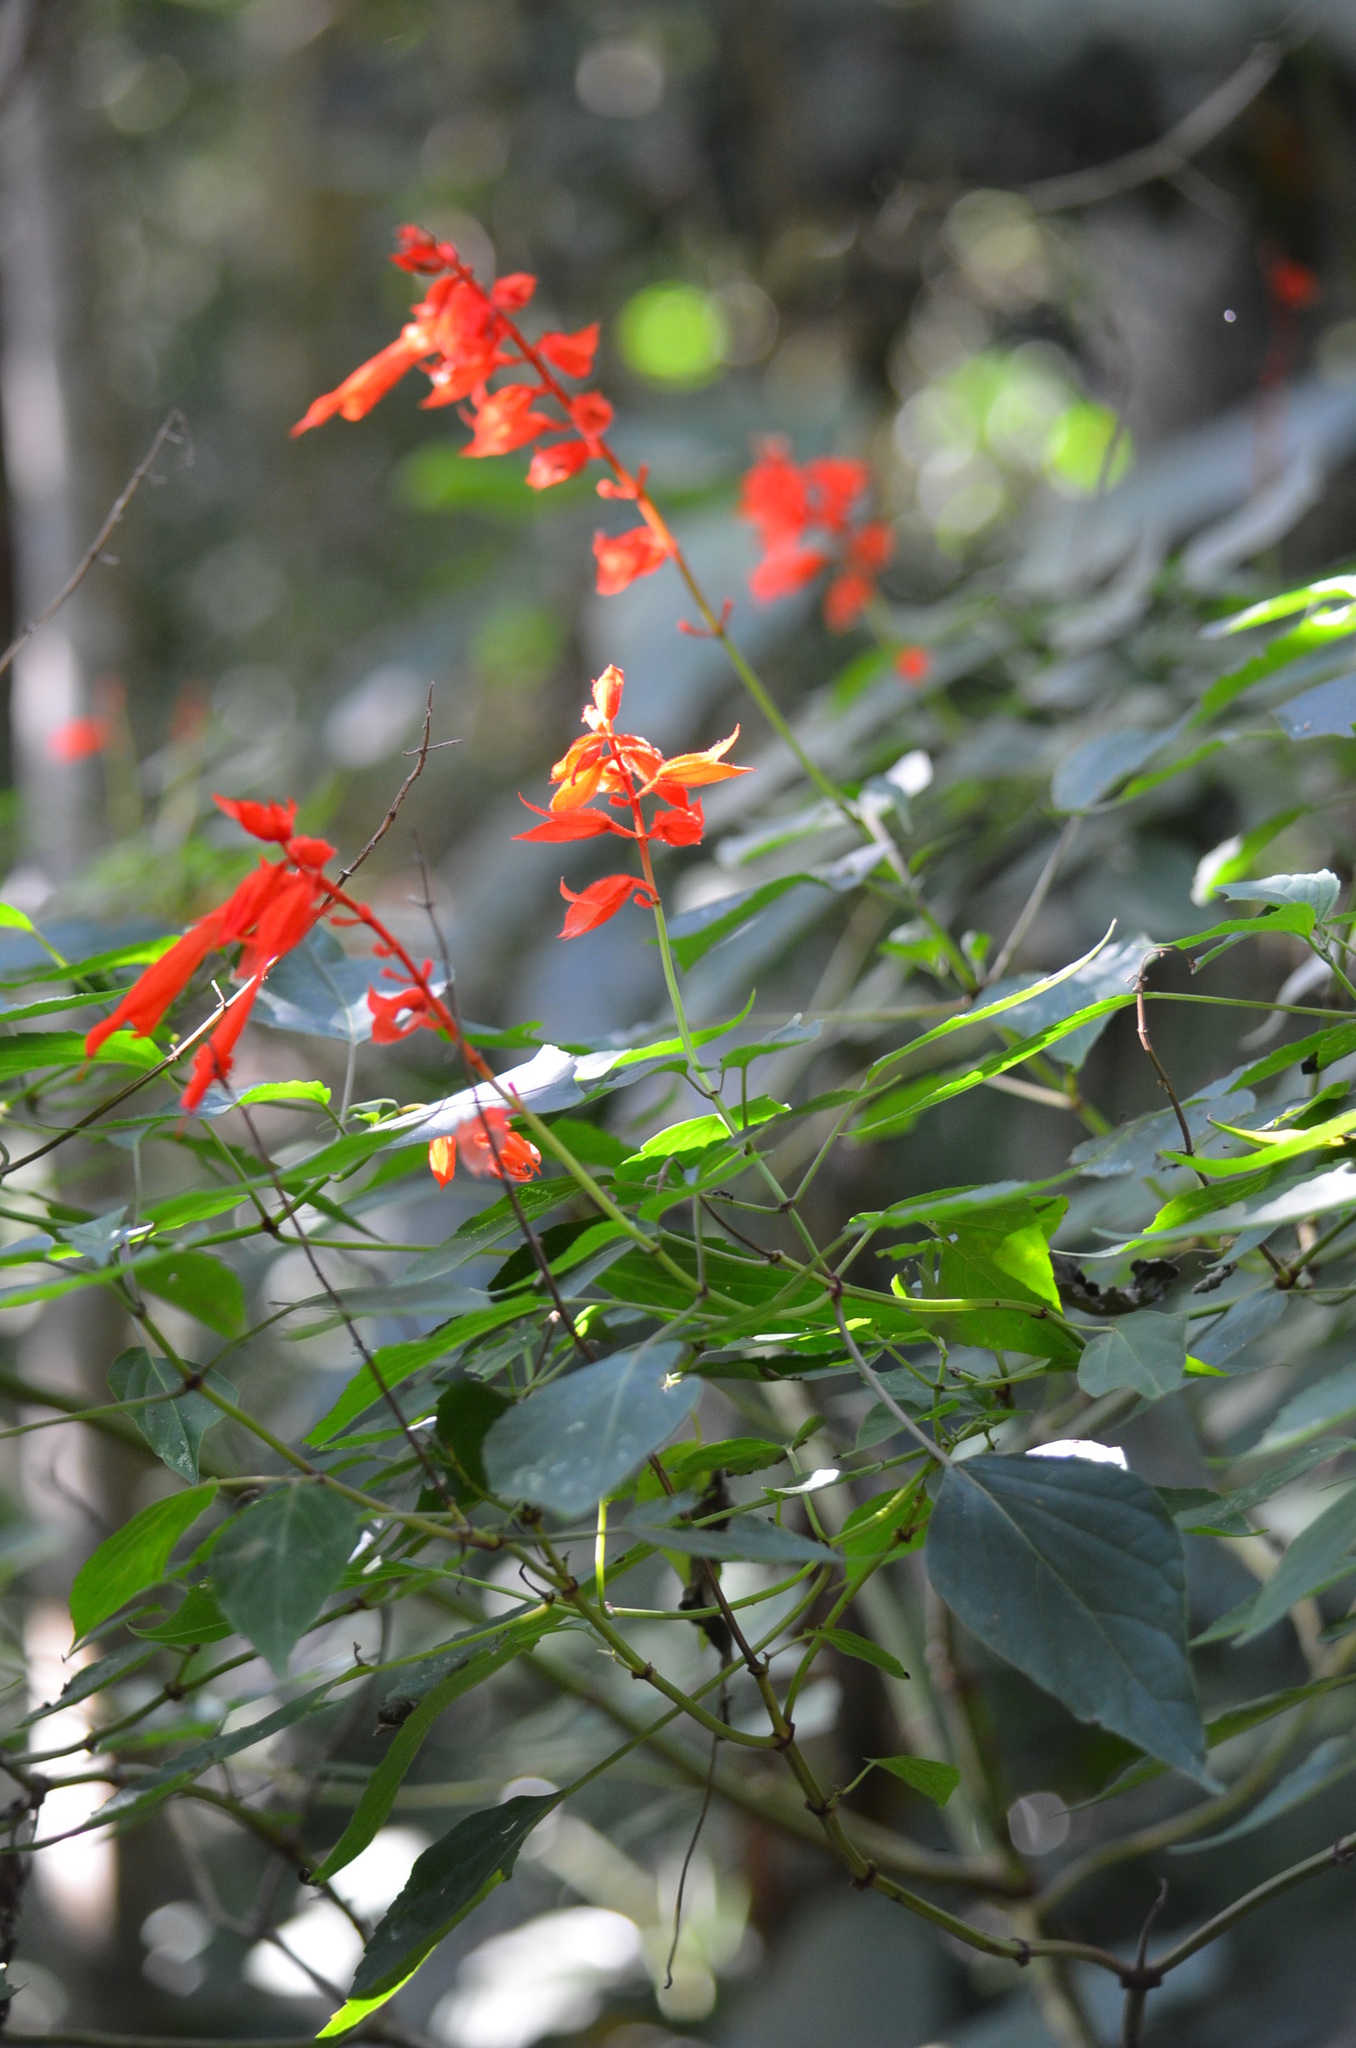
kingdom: Plantae
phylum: Tracheophyta
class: Magnoliopsida
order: Lamiales
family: Lamiaceae
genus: Salvia
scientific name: Salvia splendens
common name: Scarlet sage
